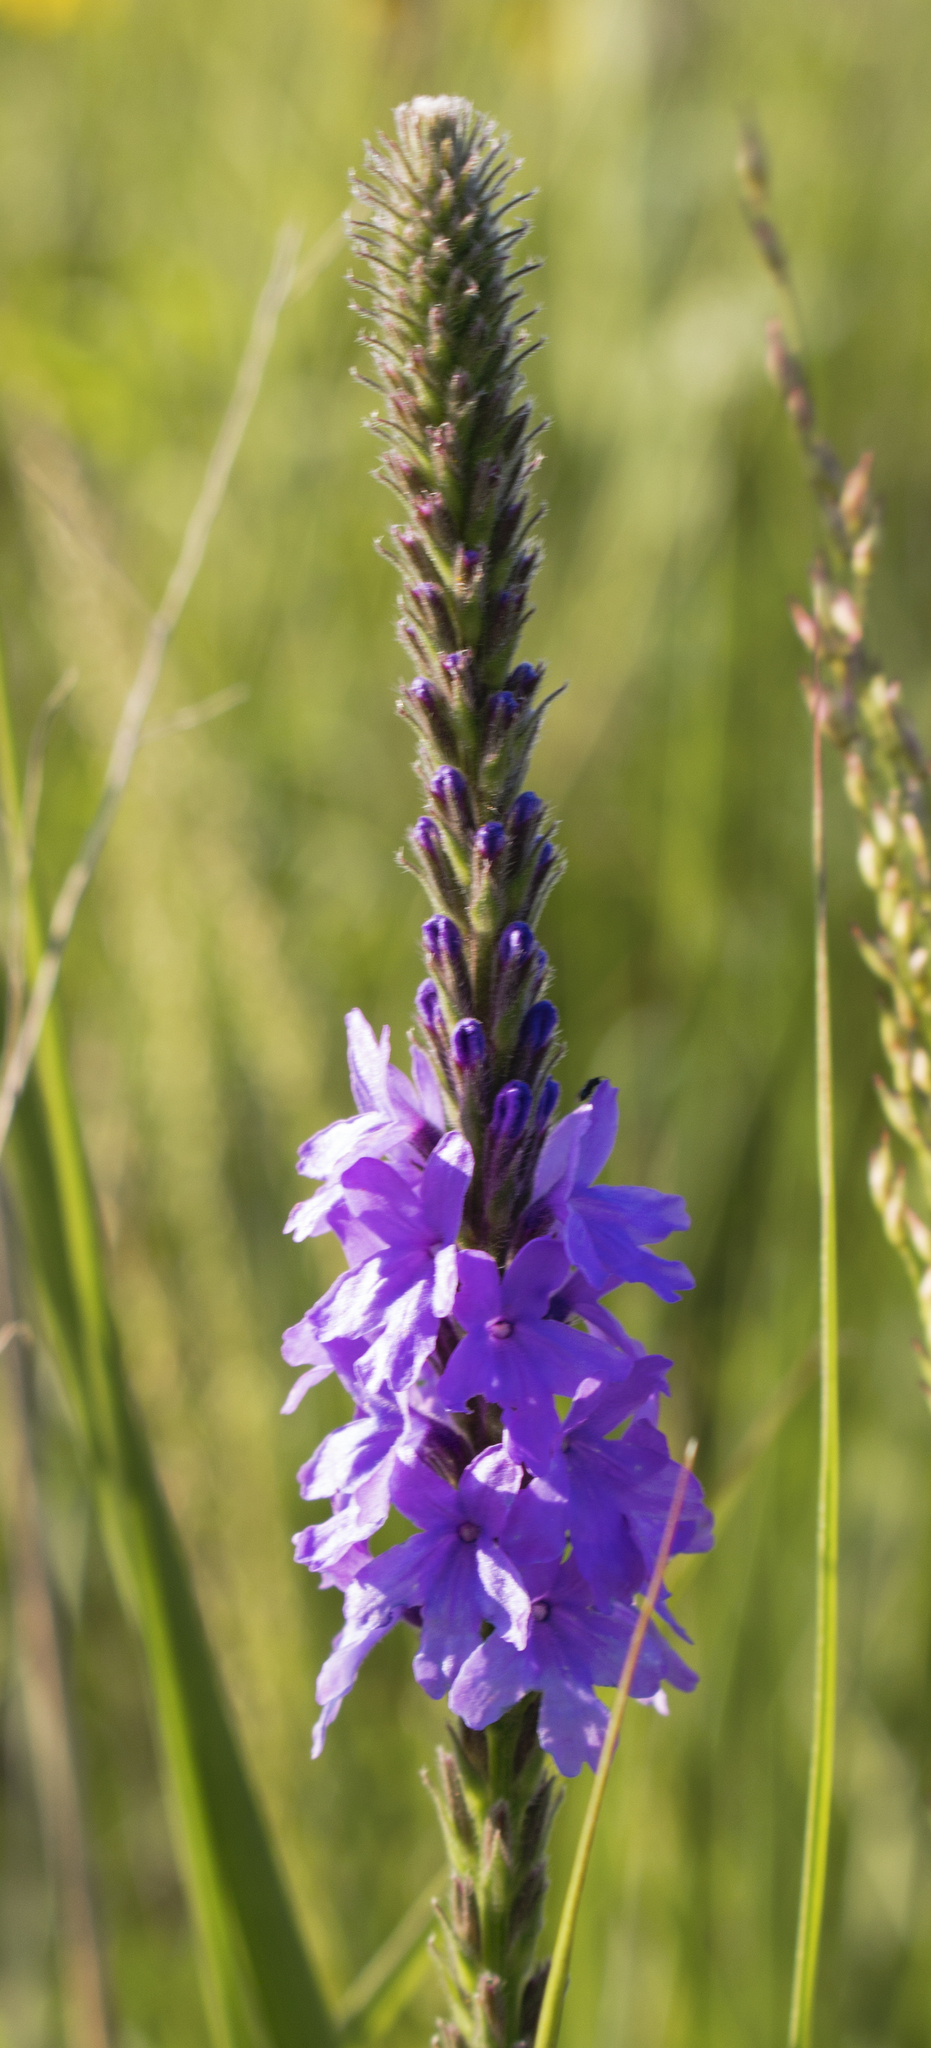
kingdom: Plantae
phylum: Tracheophyta
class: Magnoliopsida
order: Lamiales
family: Verbenaceae
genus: Verbena
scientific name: Verbena stricta
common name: Hoary vervain
